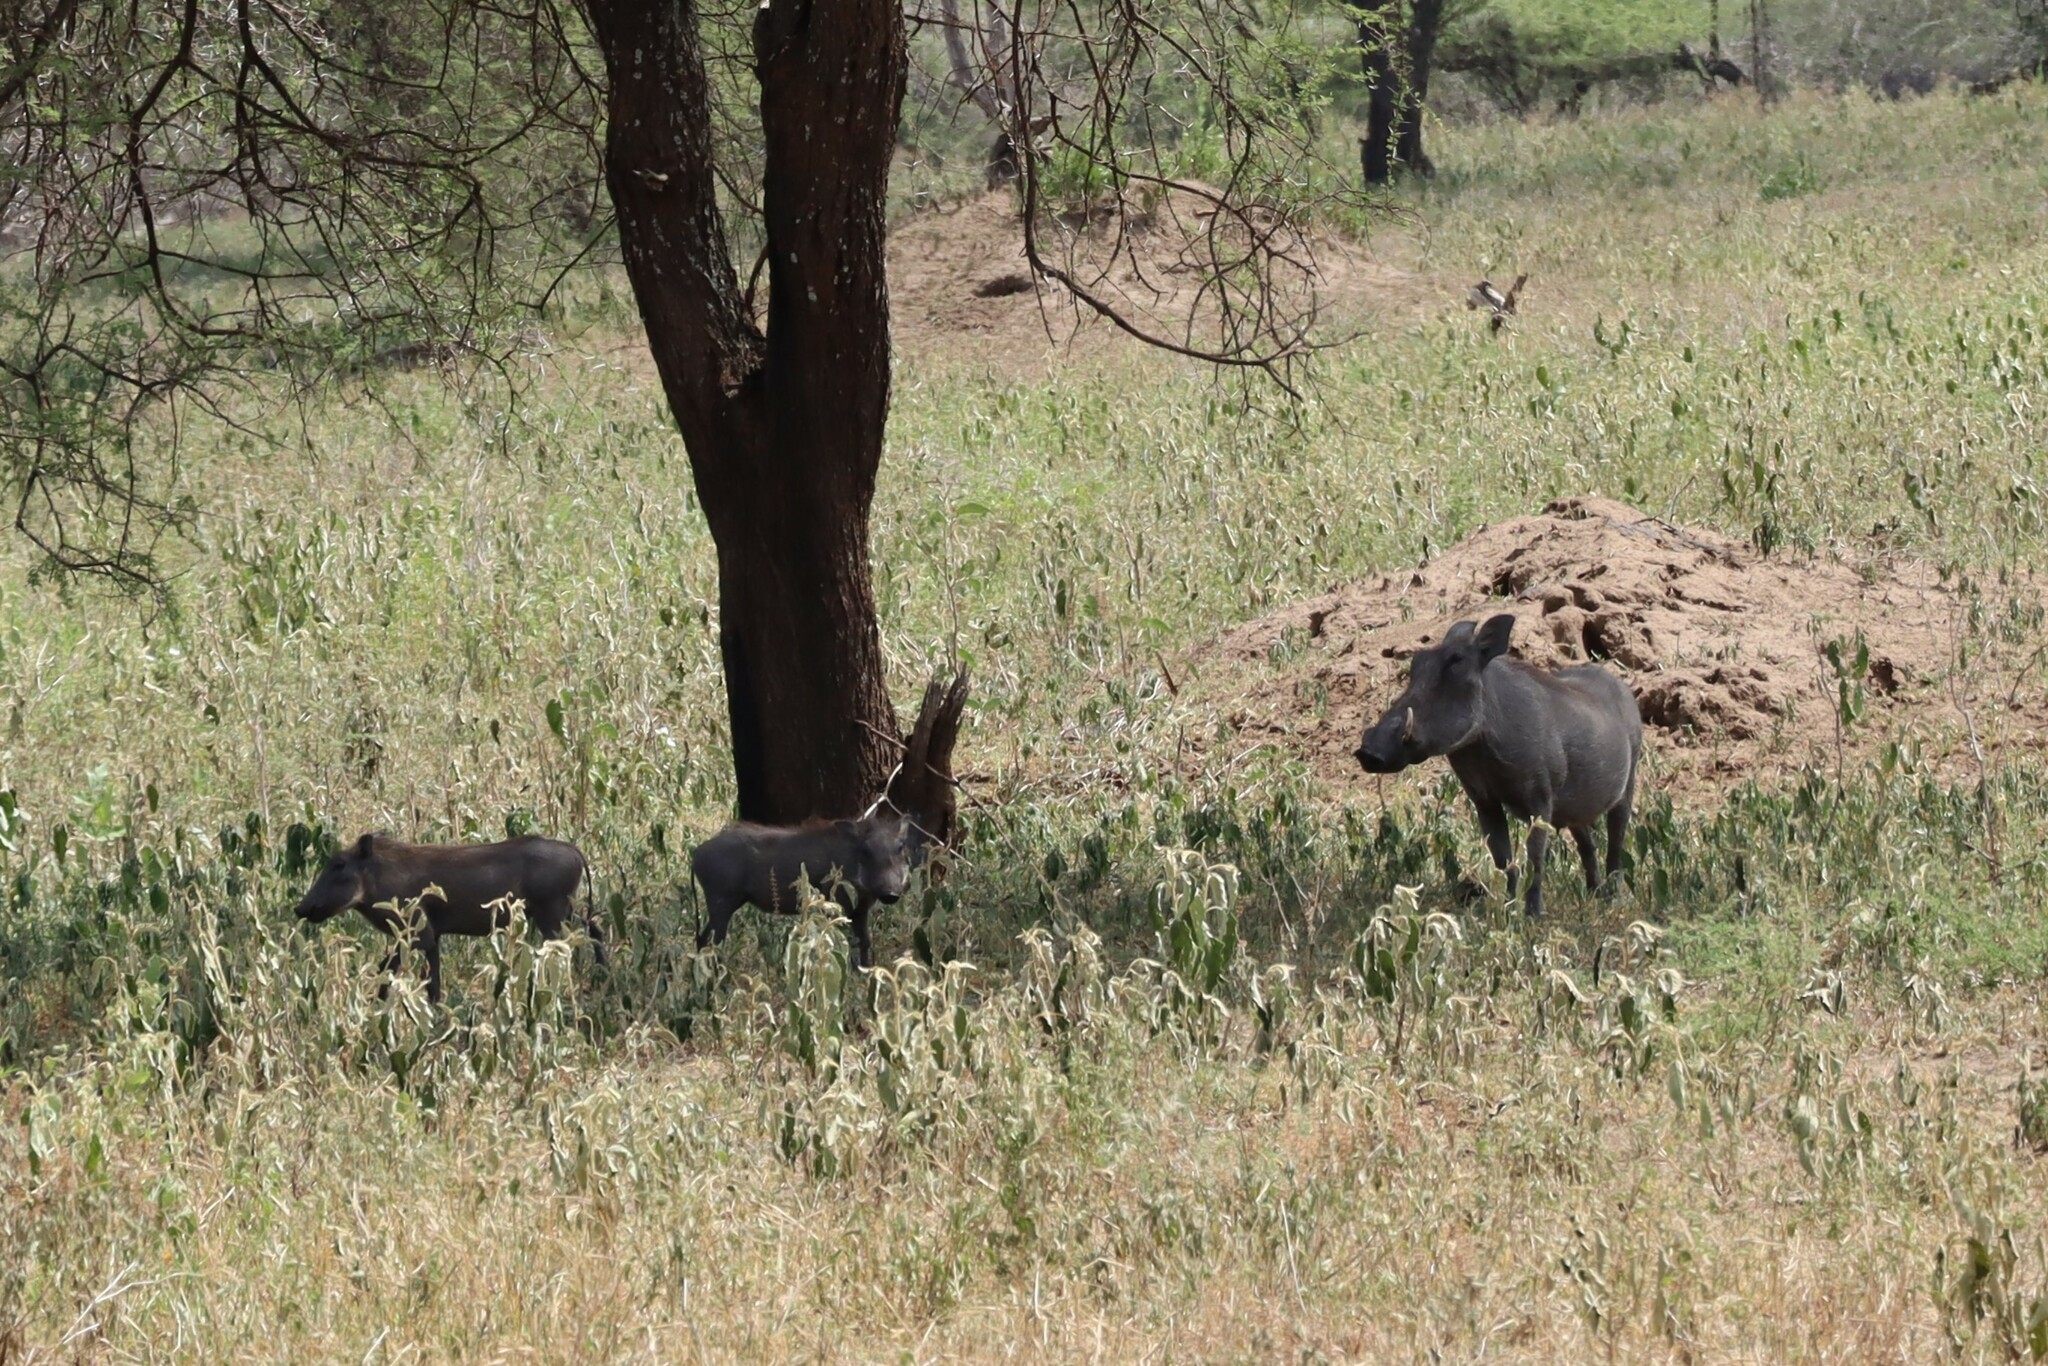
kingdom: Animalia
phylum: Chordata
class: Mammalia
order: Artiodactyla
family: Suidae
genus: Phacochoerus
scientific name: Phacochoerus africanus
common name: Common warthog
